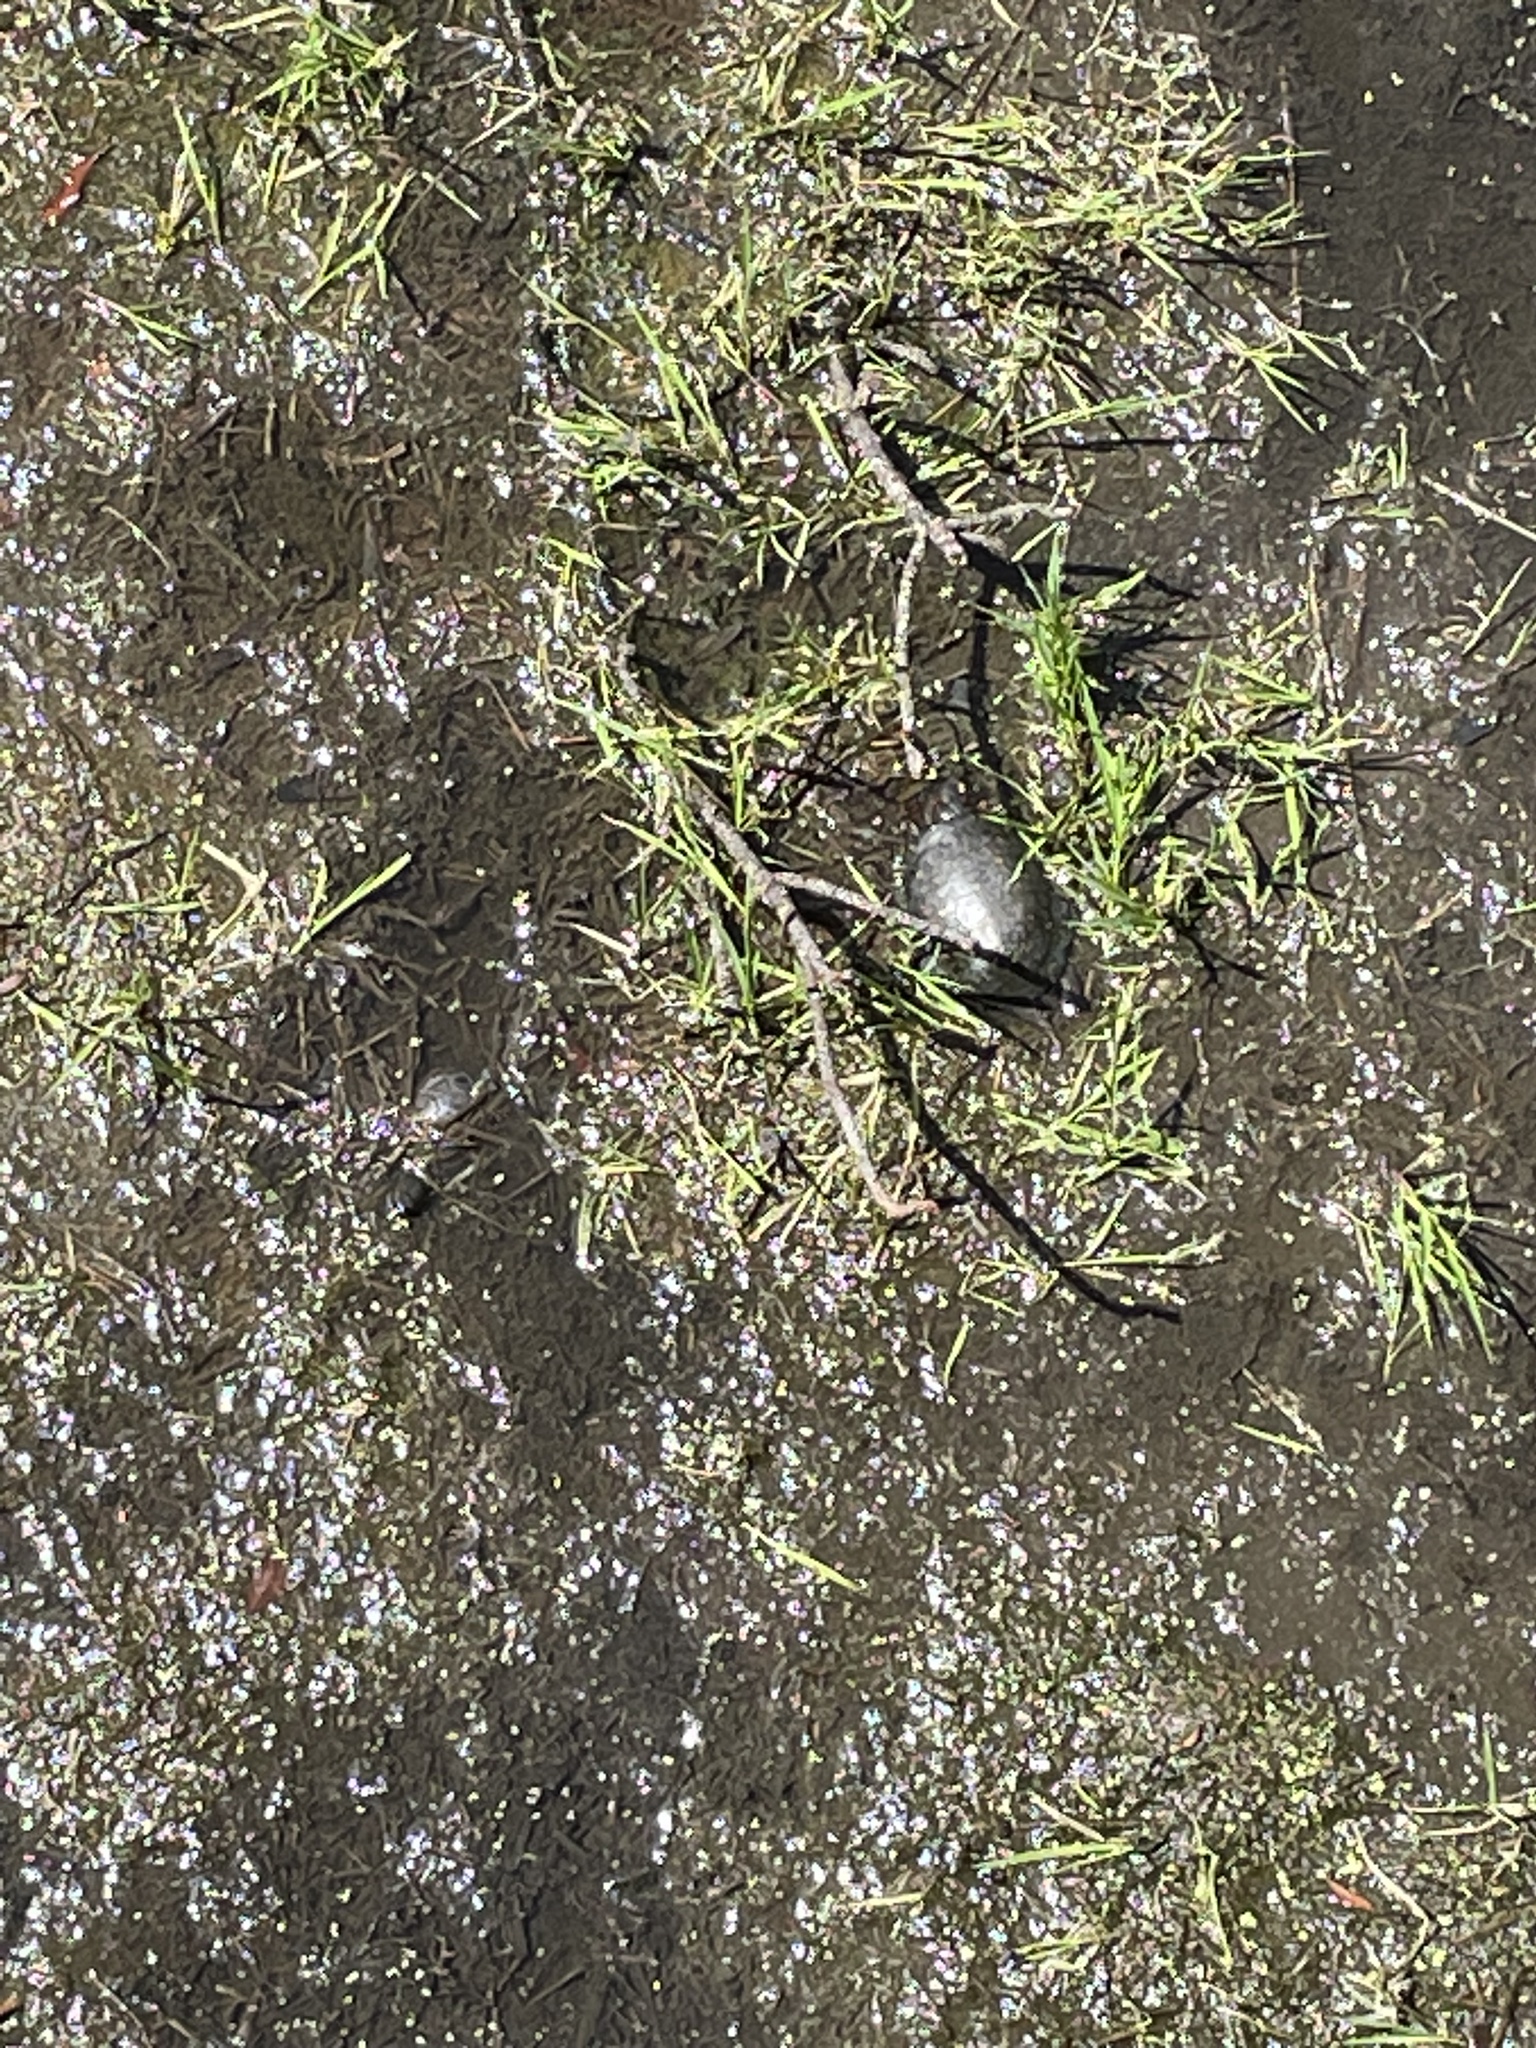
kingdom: Animalia
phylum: Chordata
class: Testudines
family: Emydidae
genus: Clemmys
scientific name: Clemmys guttata
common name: Spotted turtle
